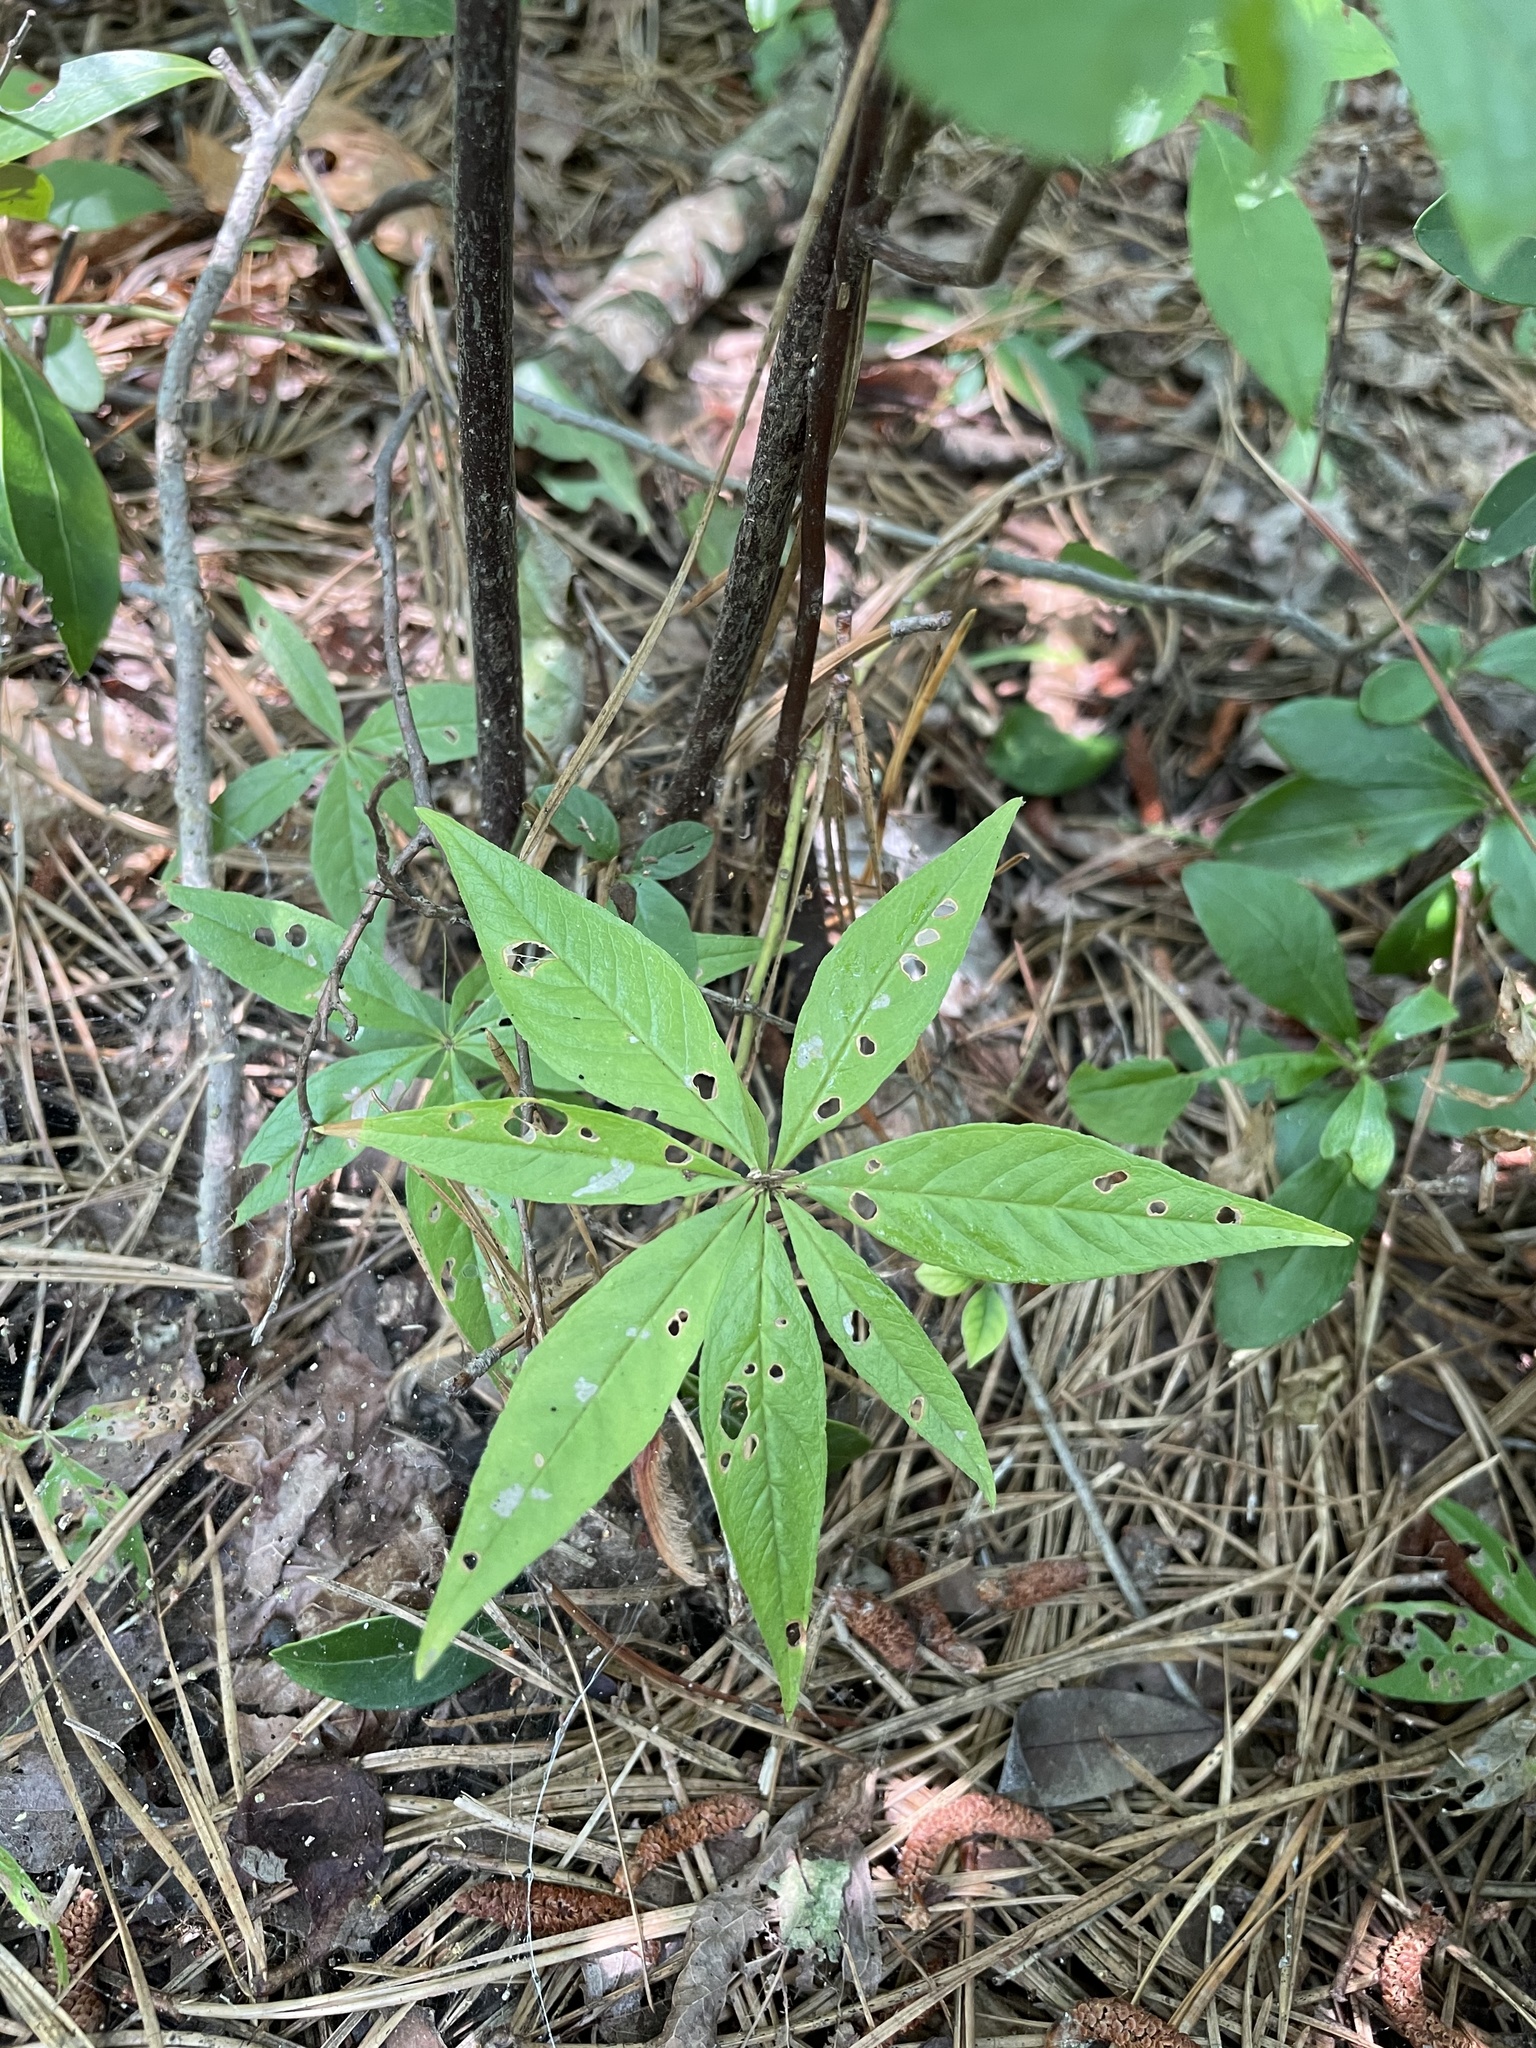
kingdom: Plantae
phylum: Tracheophyta
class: Magnoliopsida
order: Ericales
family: Primulaceae
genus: Lysimachia
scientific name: Lysimachia borealis
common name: American starflower
